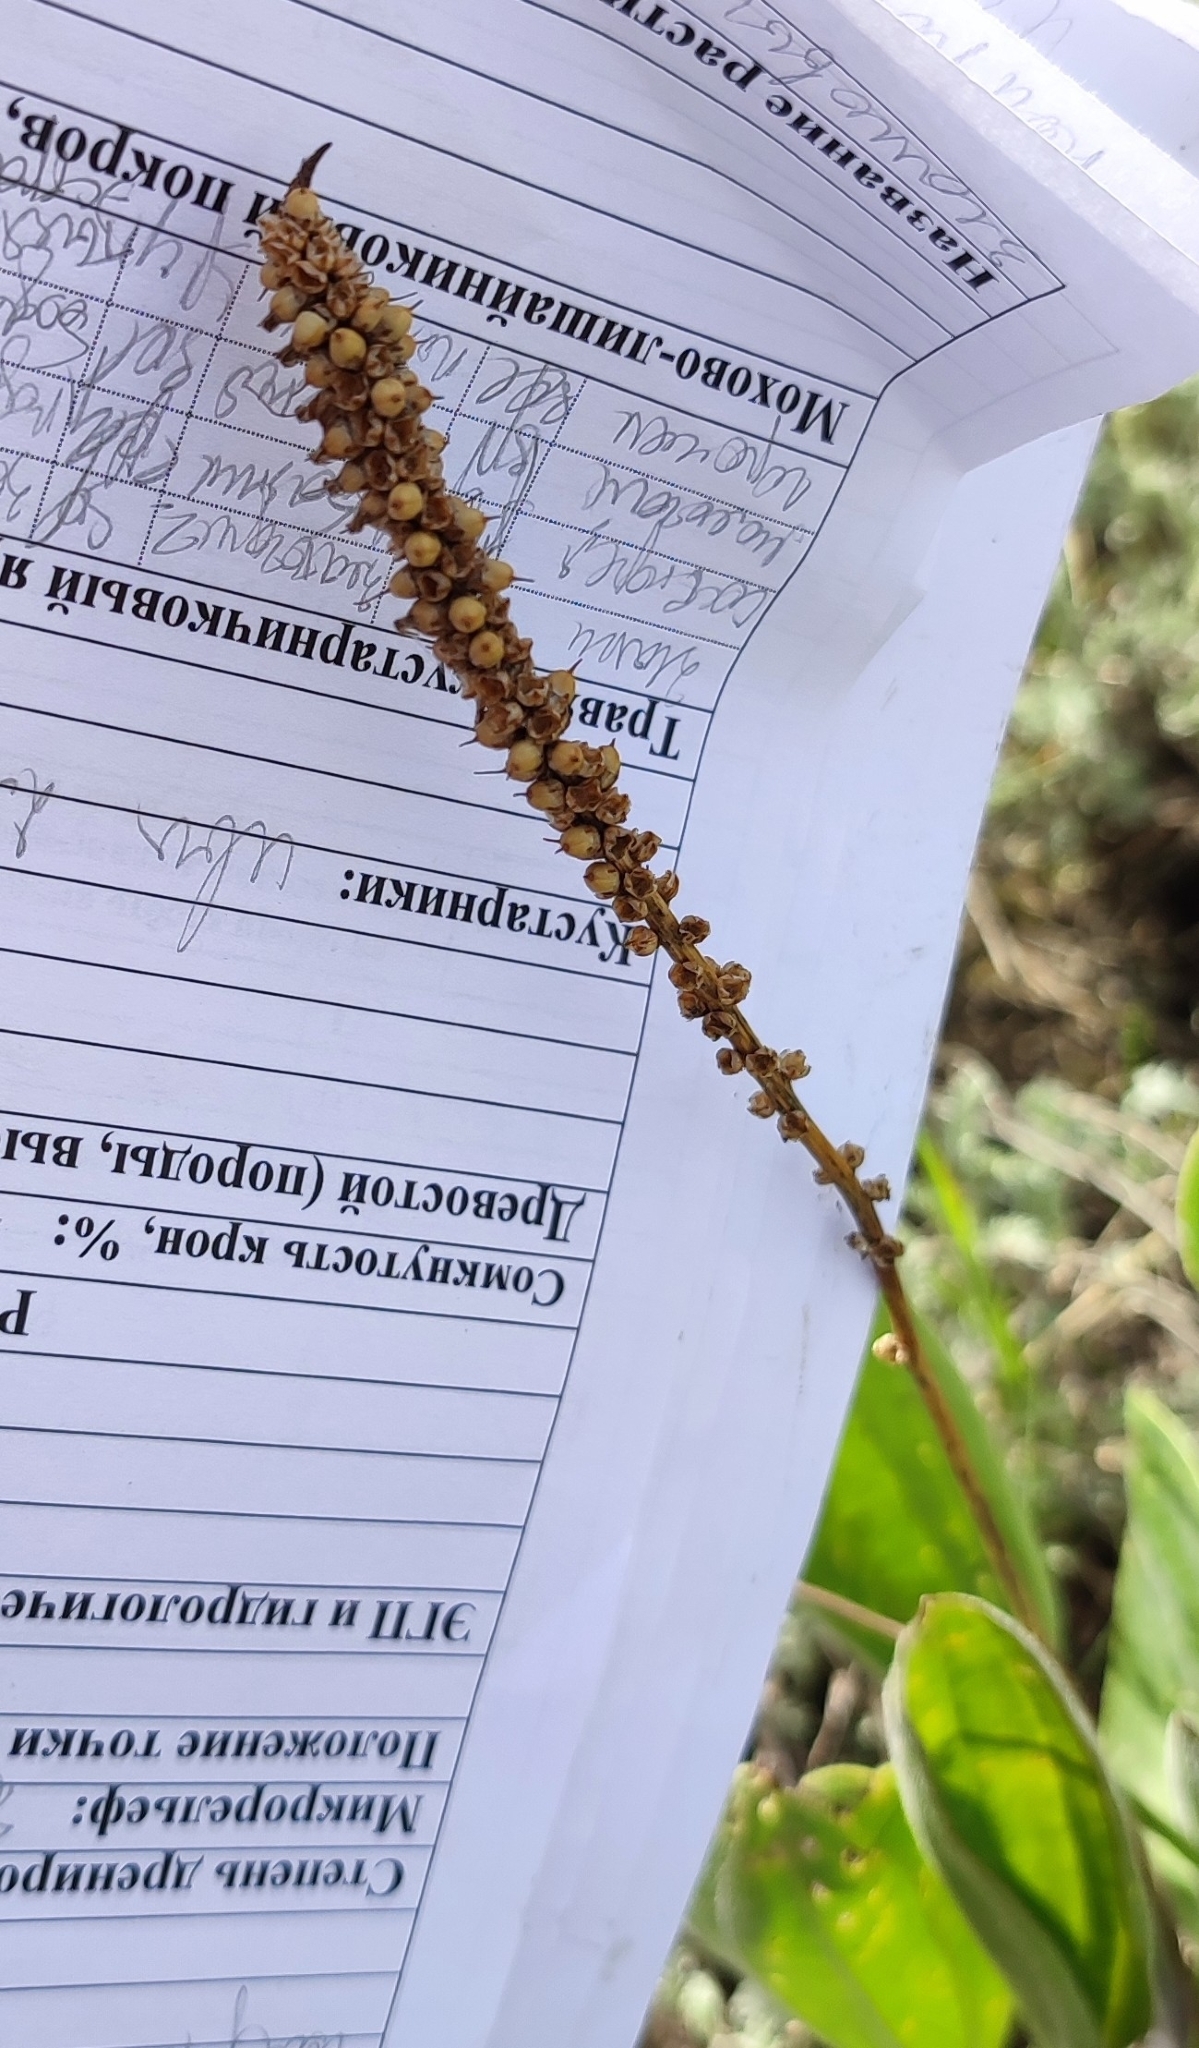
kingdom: Plantae
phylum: Tracheophyta
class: Magnoliopsida
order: Lamiales
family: Plantaginaceae
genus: Plantago
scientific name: Plantago cornuti
